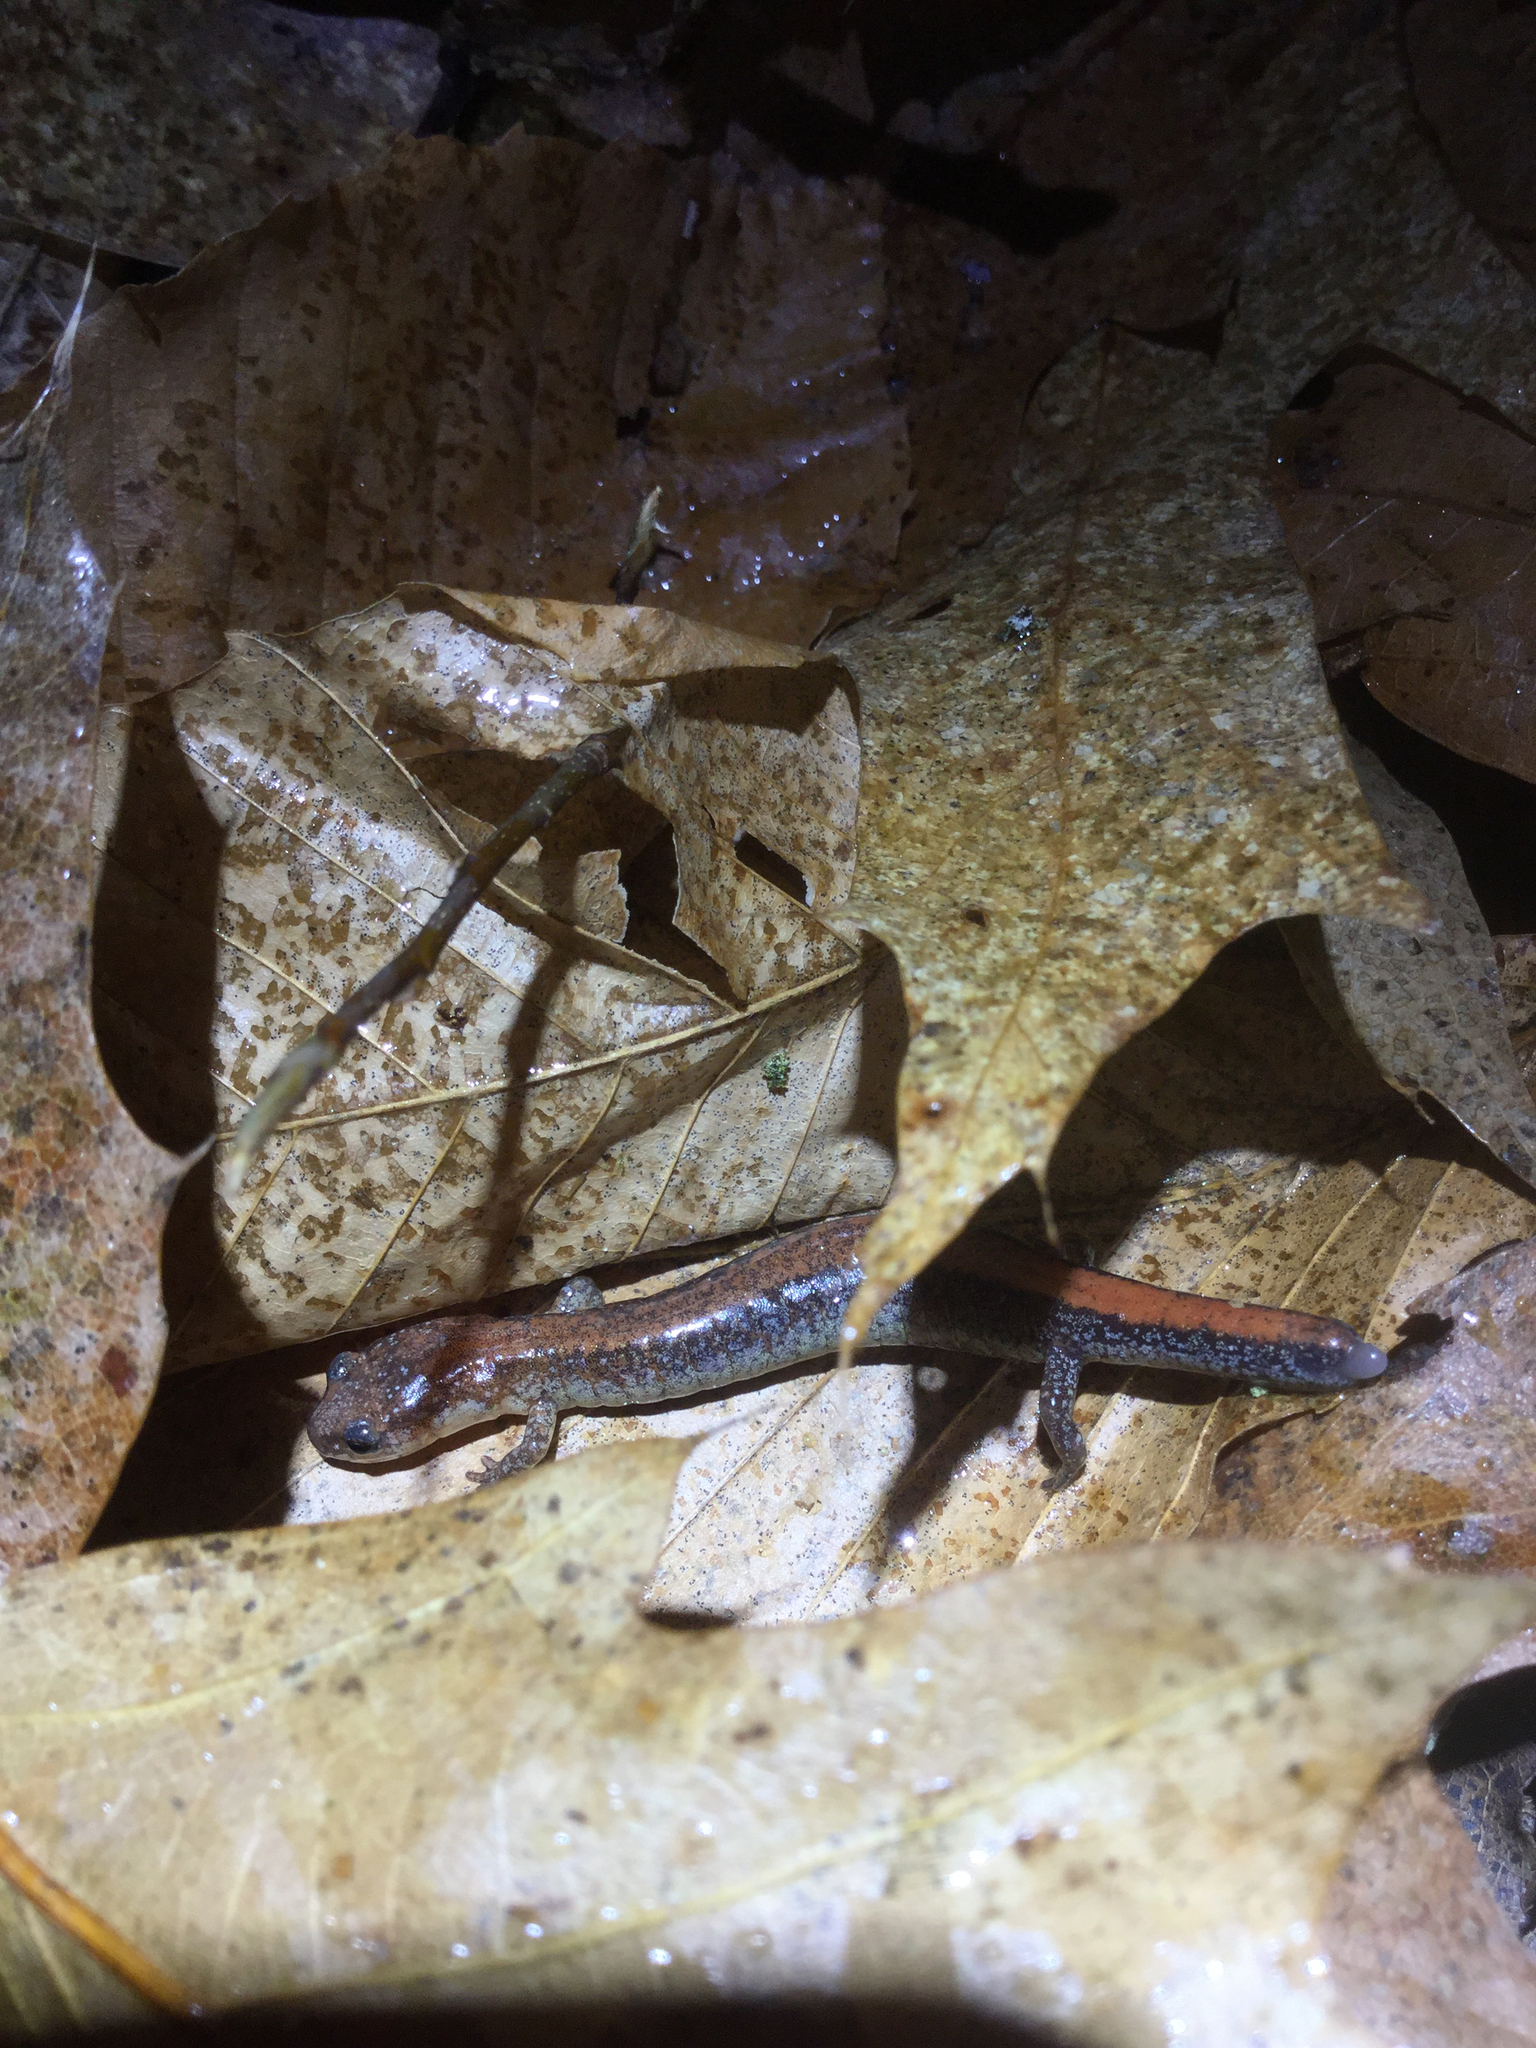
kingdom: Animalia
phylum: Chordata
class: Amphibia
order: Caudata
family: Plethodontidae
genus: Plethodon
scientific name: Plethodon cinereus
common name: Redback salamander
